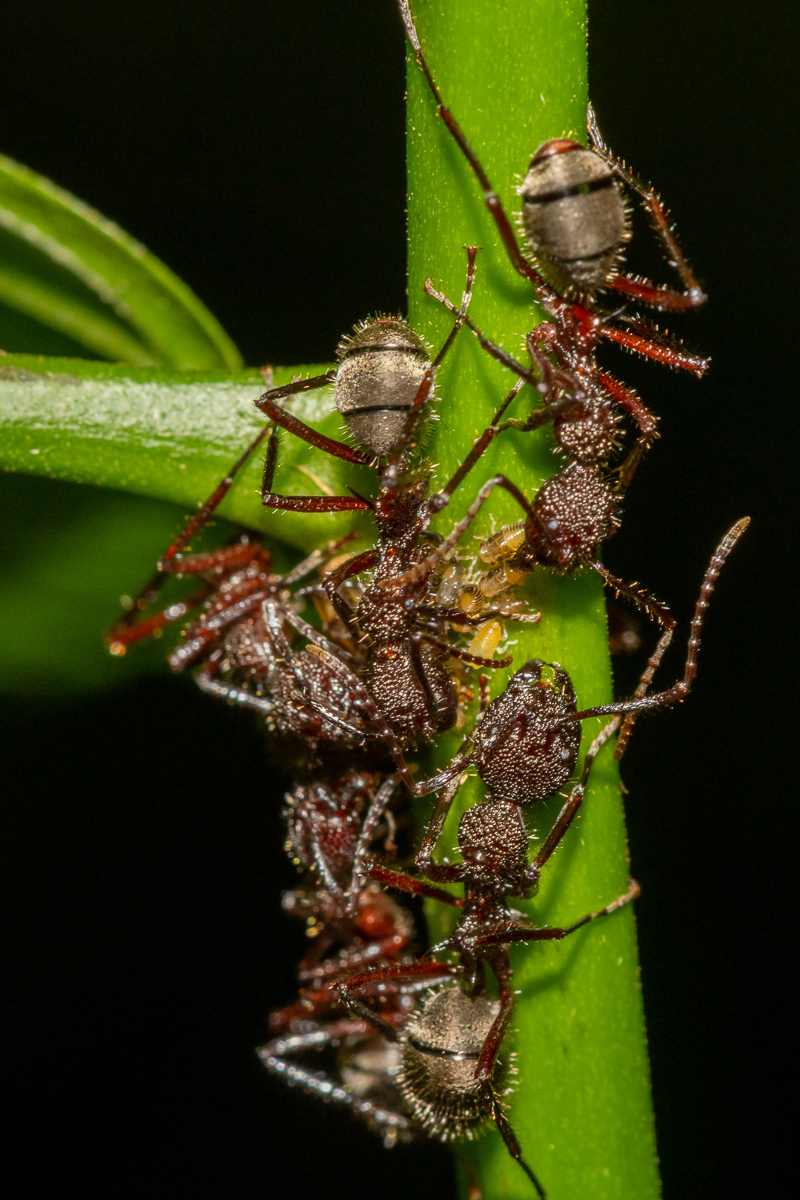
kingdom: Animalia
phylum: Arthropoda
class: Insecta
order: Hymenoptera
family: Formicidae
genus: Dolichoderus
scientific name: Dolichoderus decollatus
